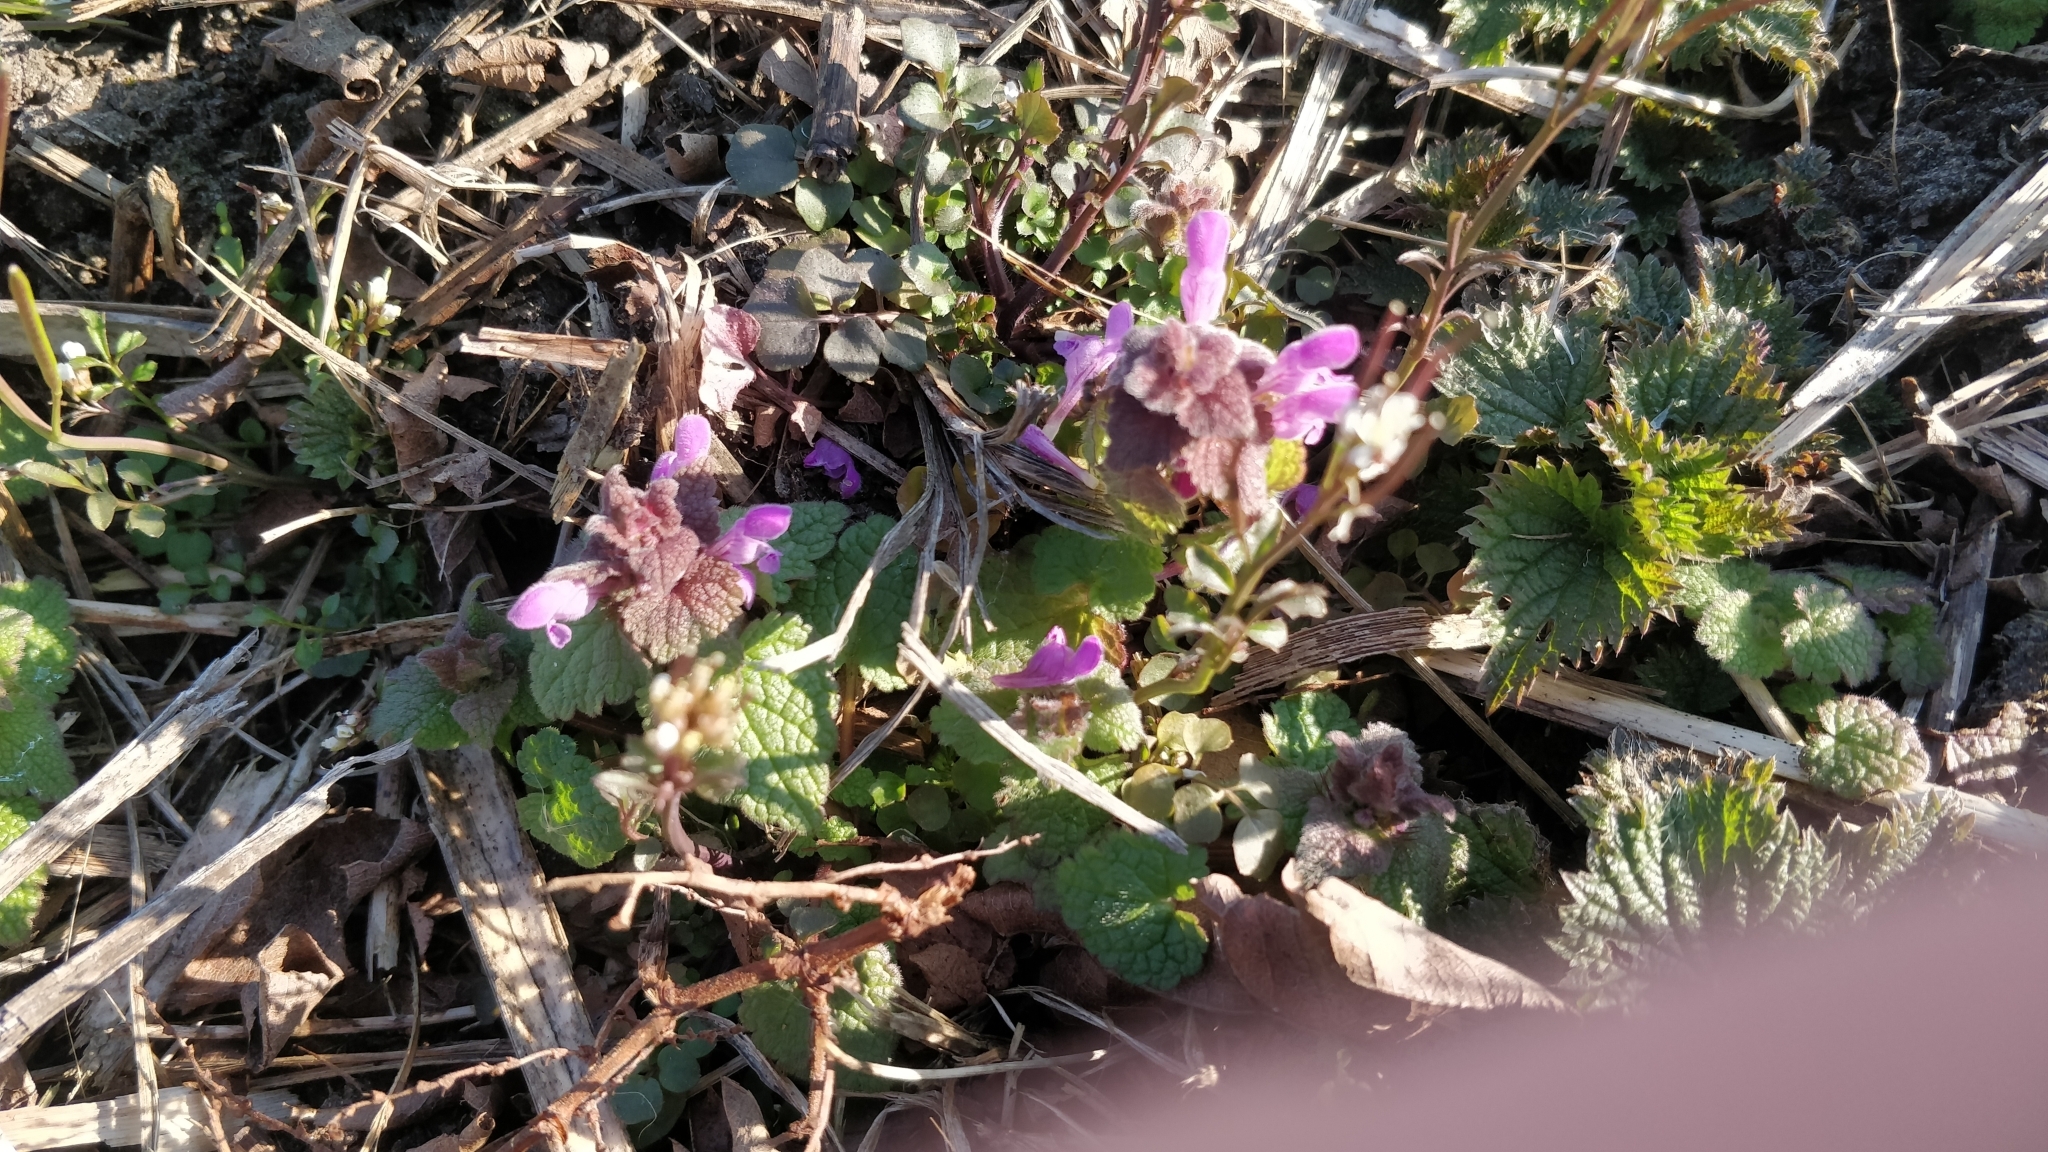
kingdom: Plantae
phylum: Tracheophyta
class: Magnoliopsida
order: Lamiales
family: Lamiaceae
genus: Lamium
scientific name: Lamium purpureum
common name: Red dead-nettle
